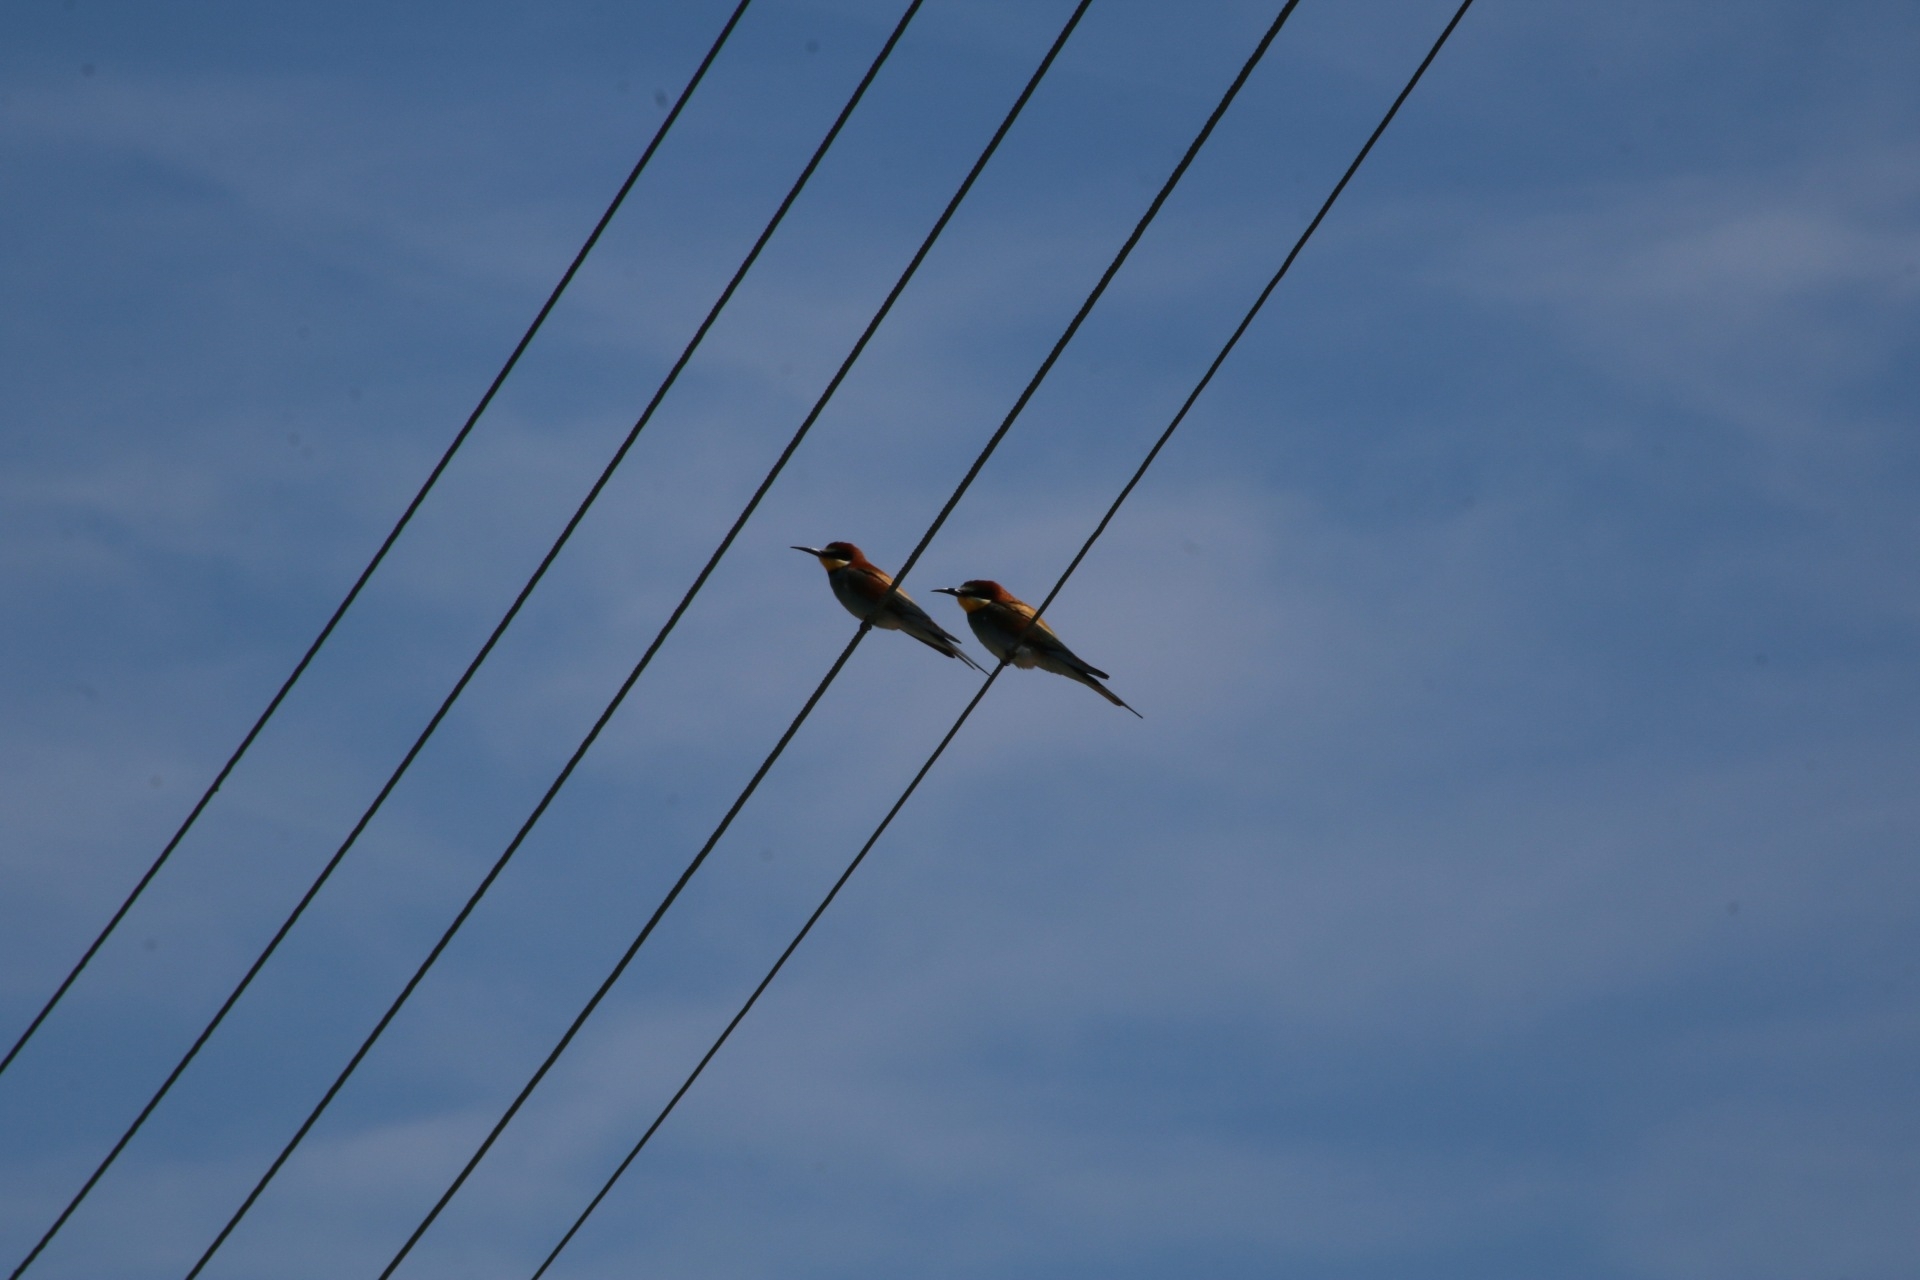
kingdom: Animalia
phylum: Chordata
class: Aves
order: Coraciiformes
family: Meropidae
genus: Merops
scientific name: Merops apiaster
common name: European bee-eater
